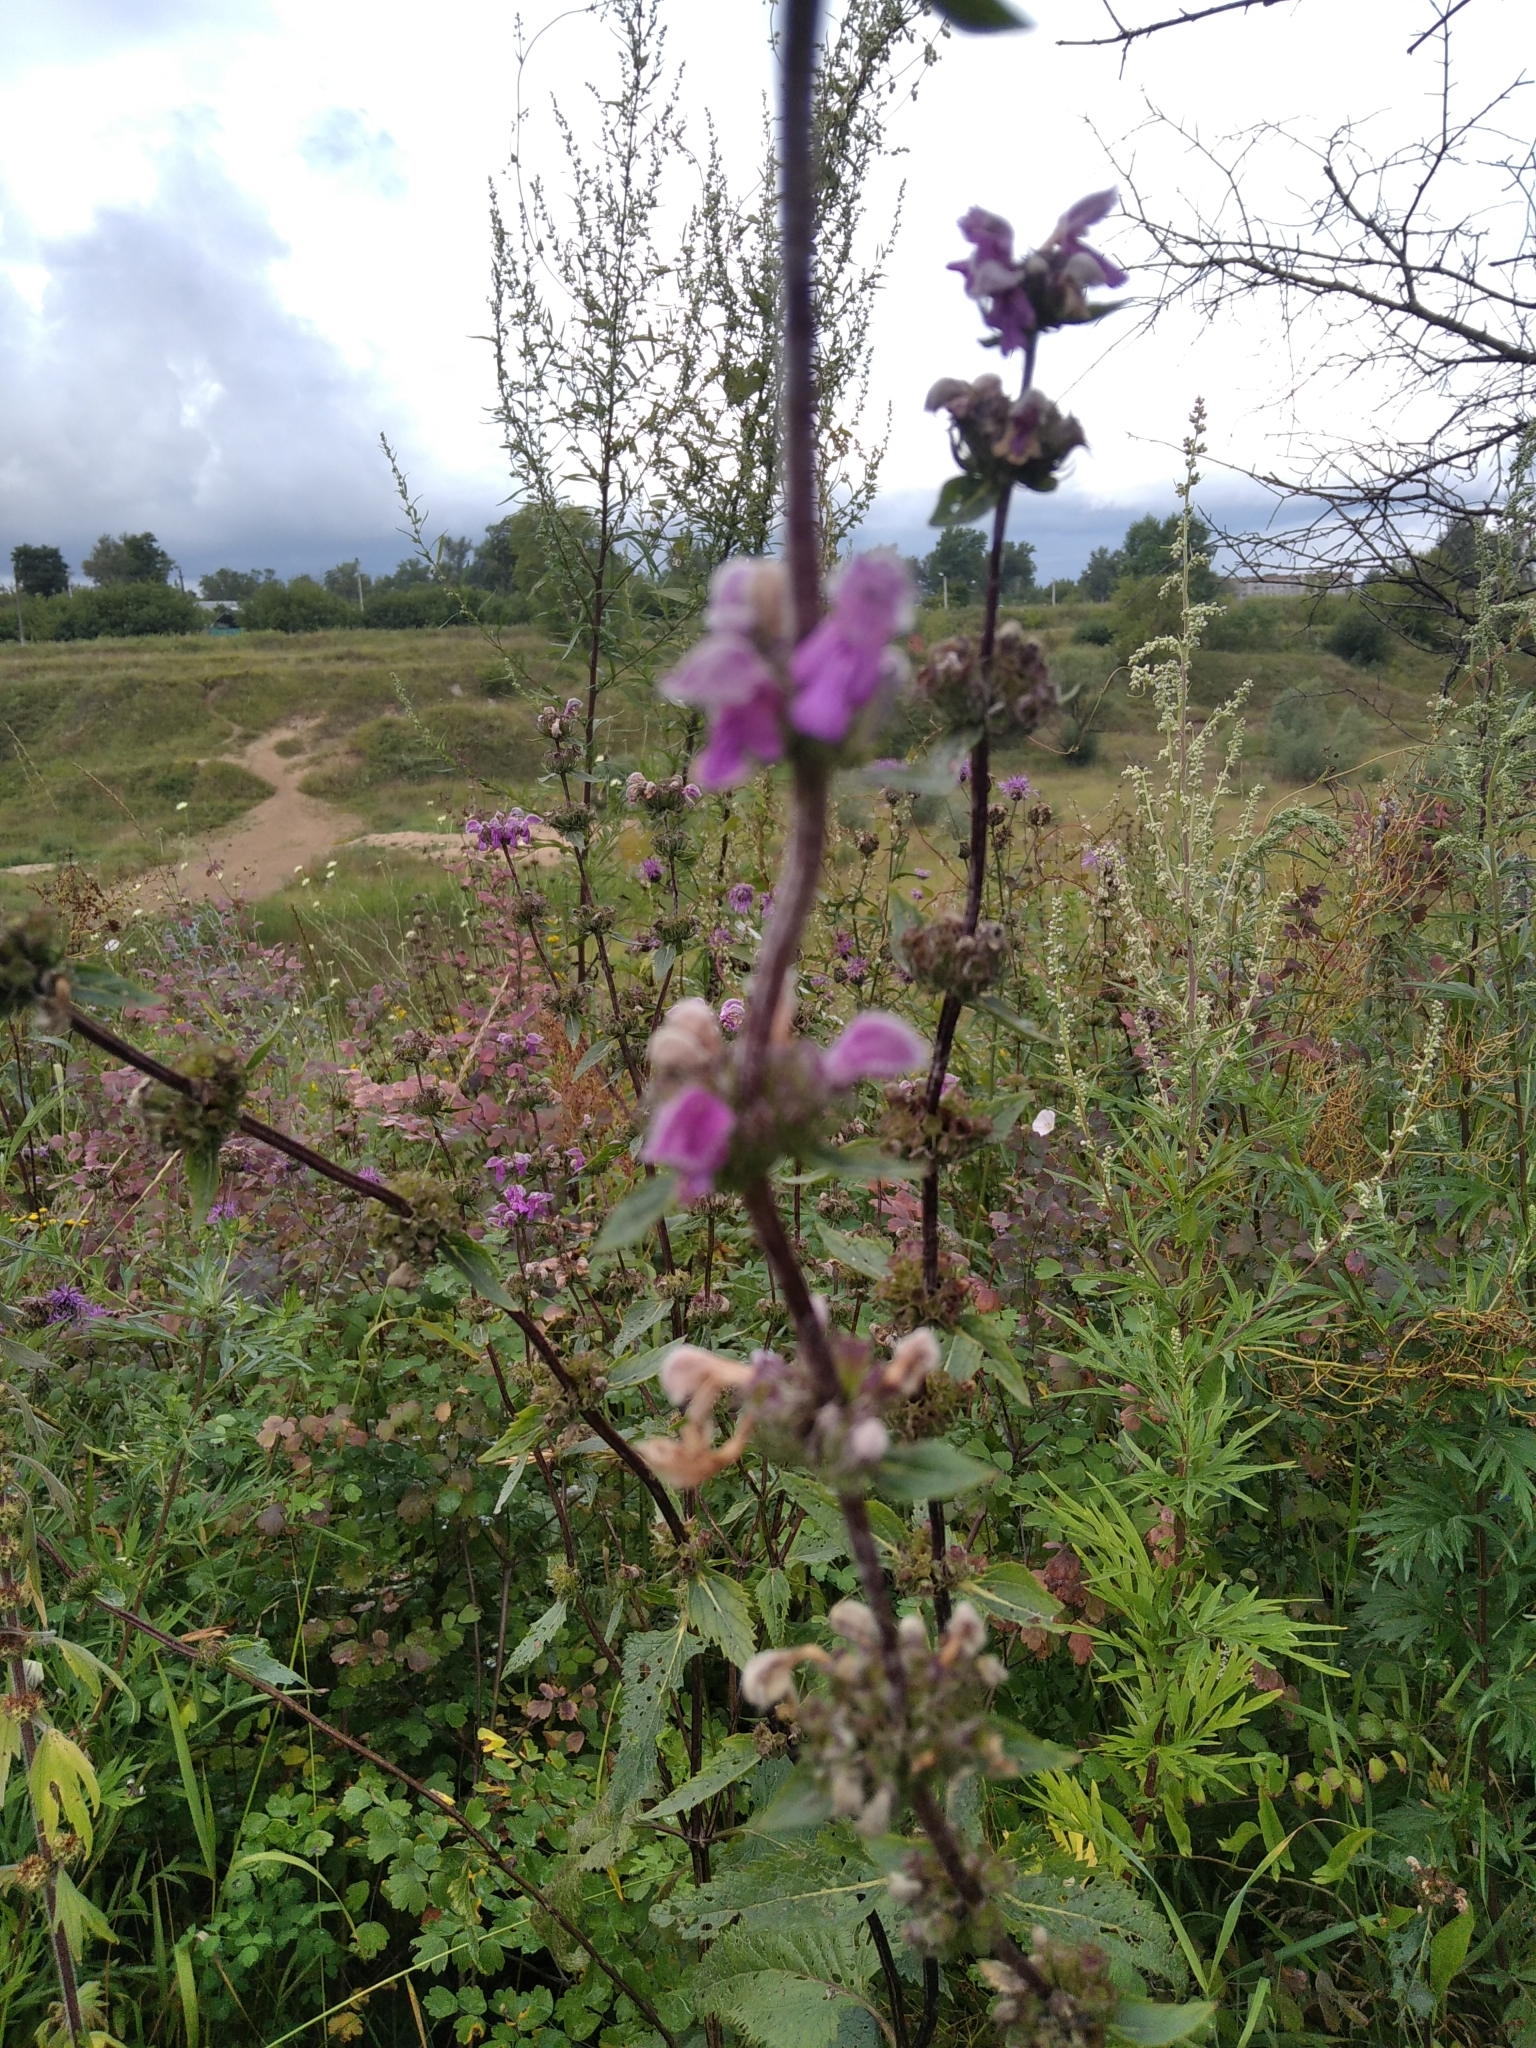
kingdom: Plantae
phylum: Tracheophyta
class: Magnoliopsida
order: Lamiales
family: Lamiaceae
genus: Phlomoides
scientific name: Phlomoides tuberosa
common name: Tuberous jerusalem sage
